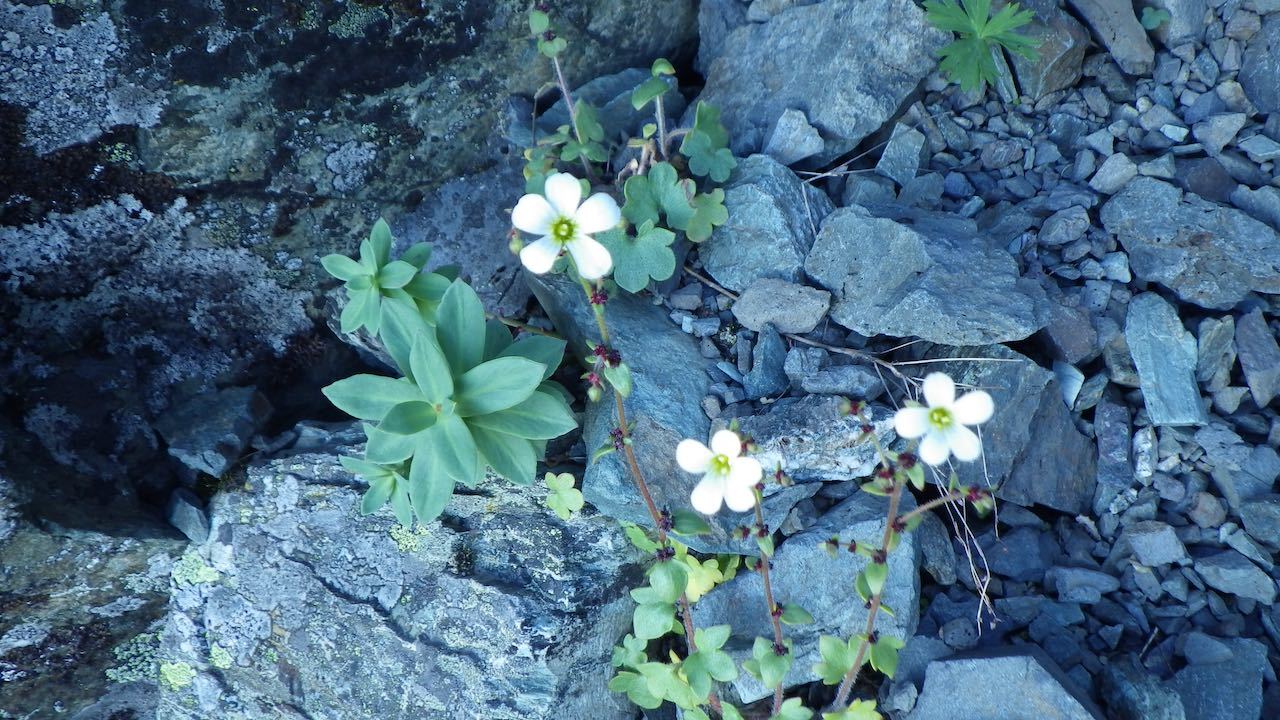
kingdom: Plantae
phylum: Tracheophyta
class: Magnoliopsida
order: Saxifragales
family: Saxifragaceae
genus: Saxifraga
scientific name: Saxifraga cernua
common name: Drooping saxifrage
